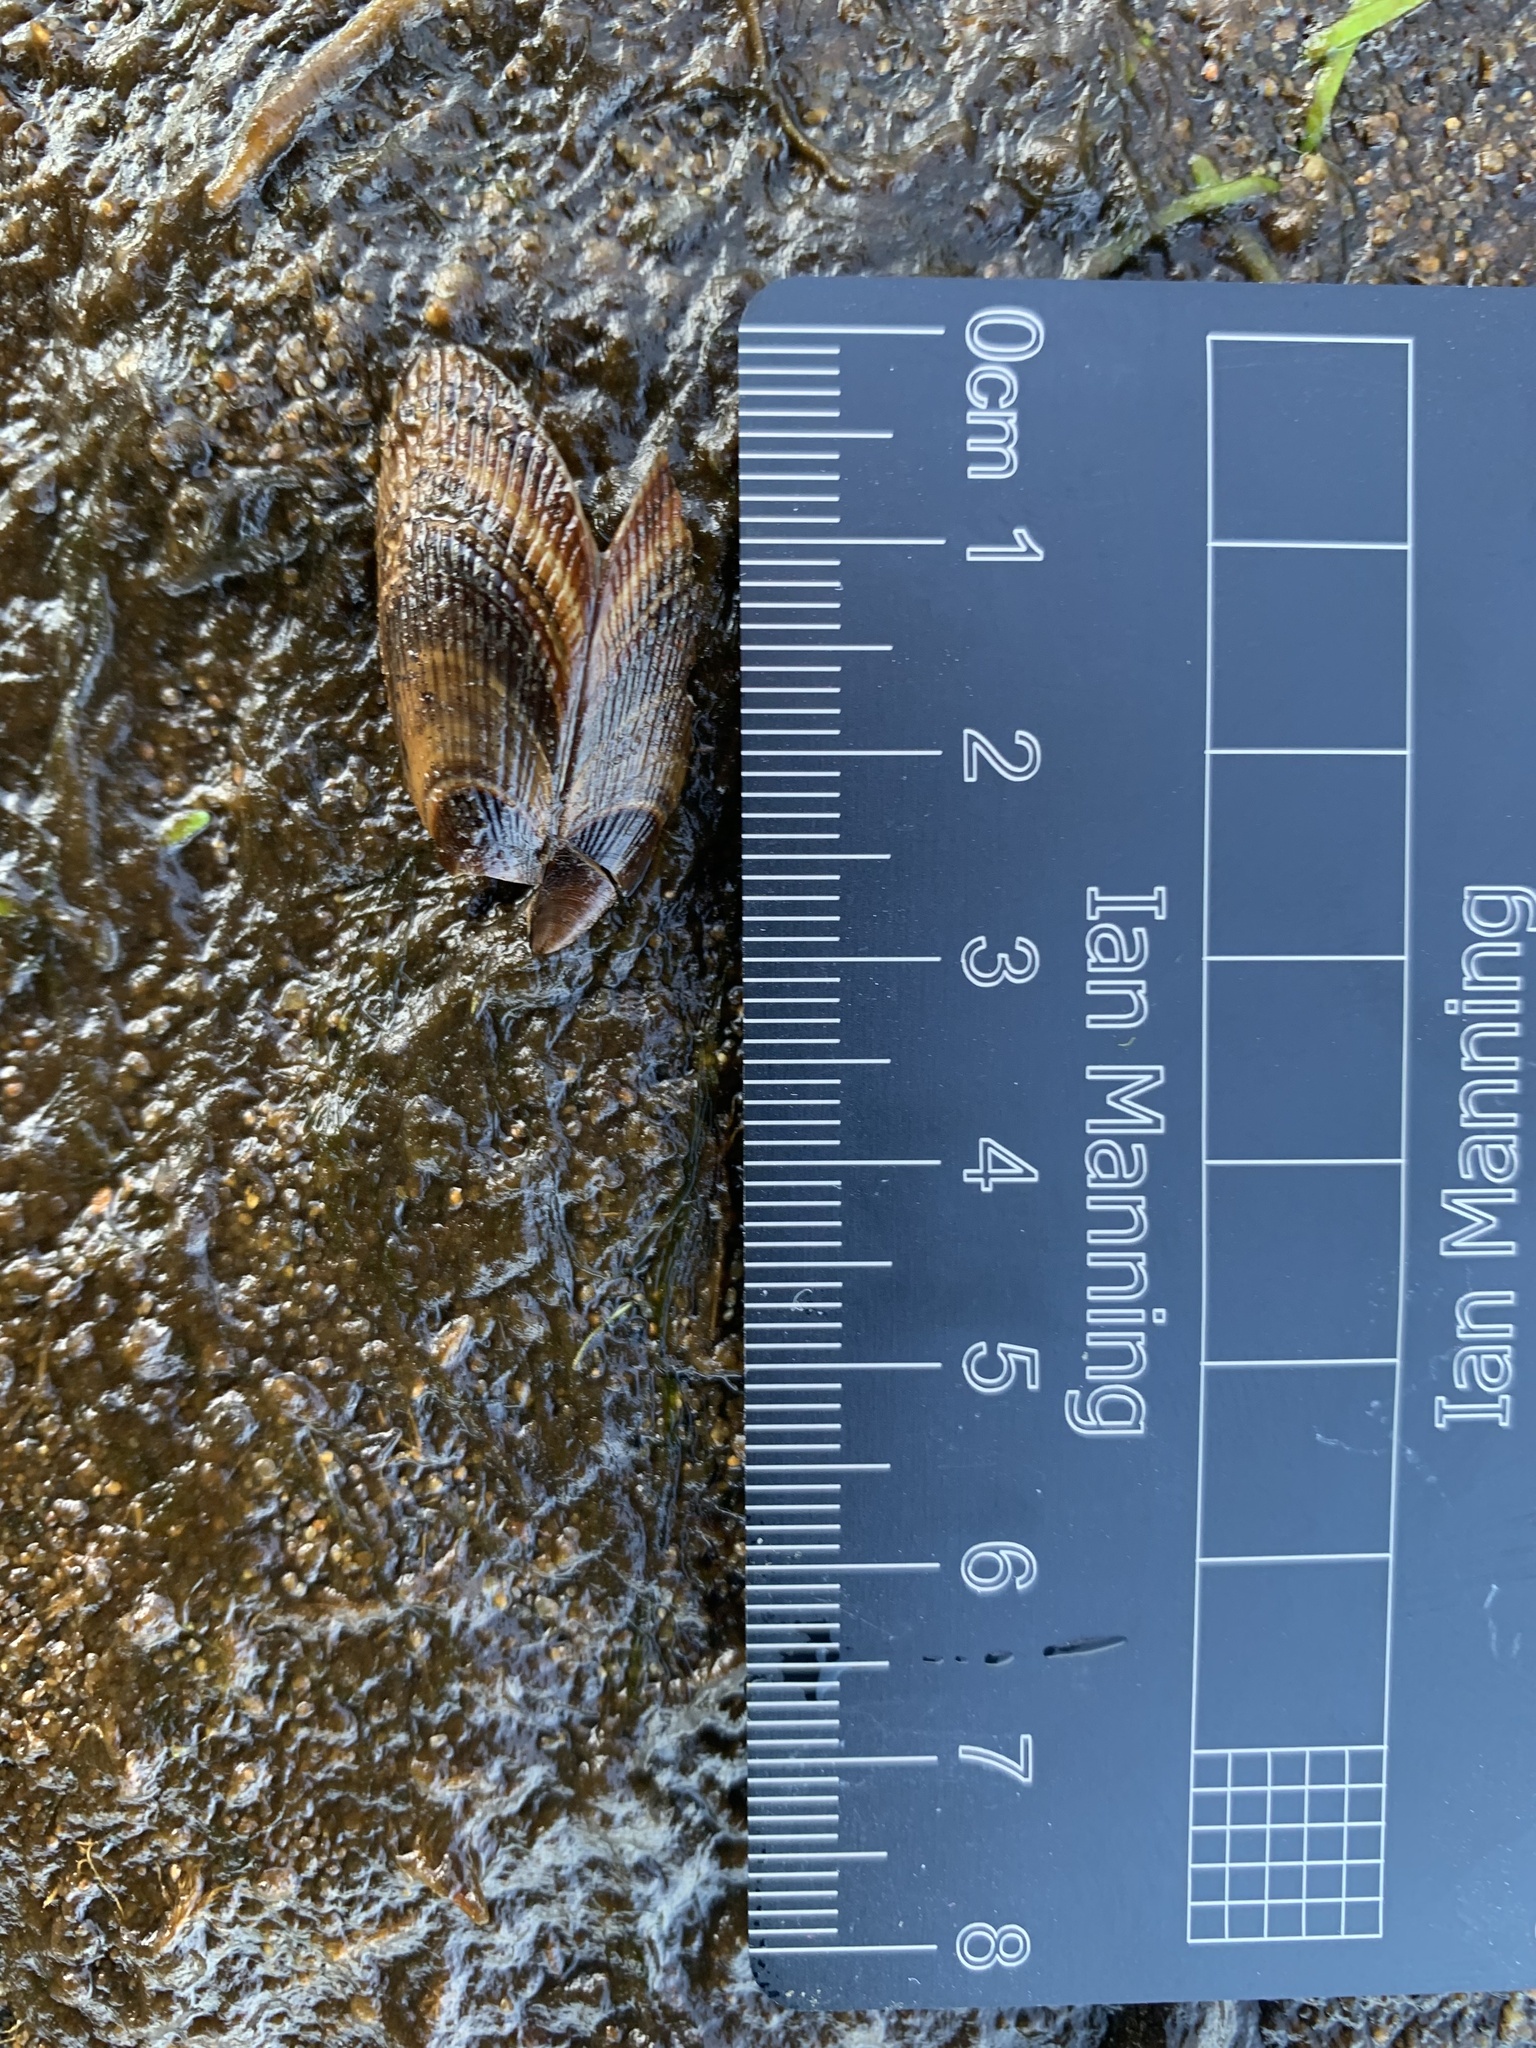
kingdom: Animalia
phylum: Mollusca
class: Bivalvia
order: Mytilida
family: Mytilidae
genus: Geukensia
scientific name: Geukensia demissa
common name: Ribbed mussel
